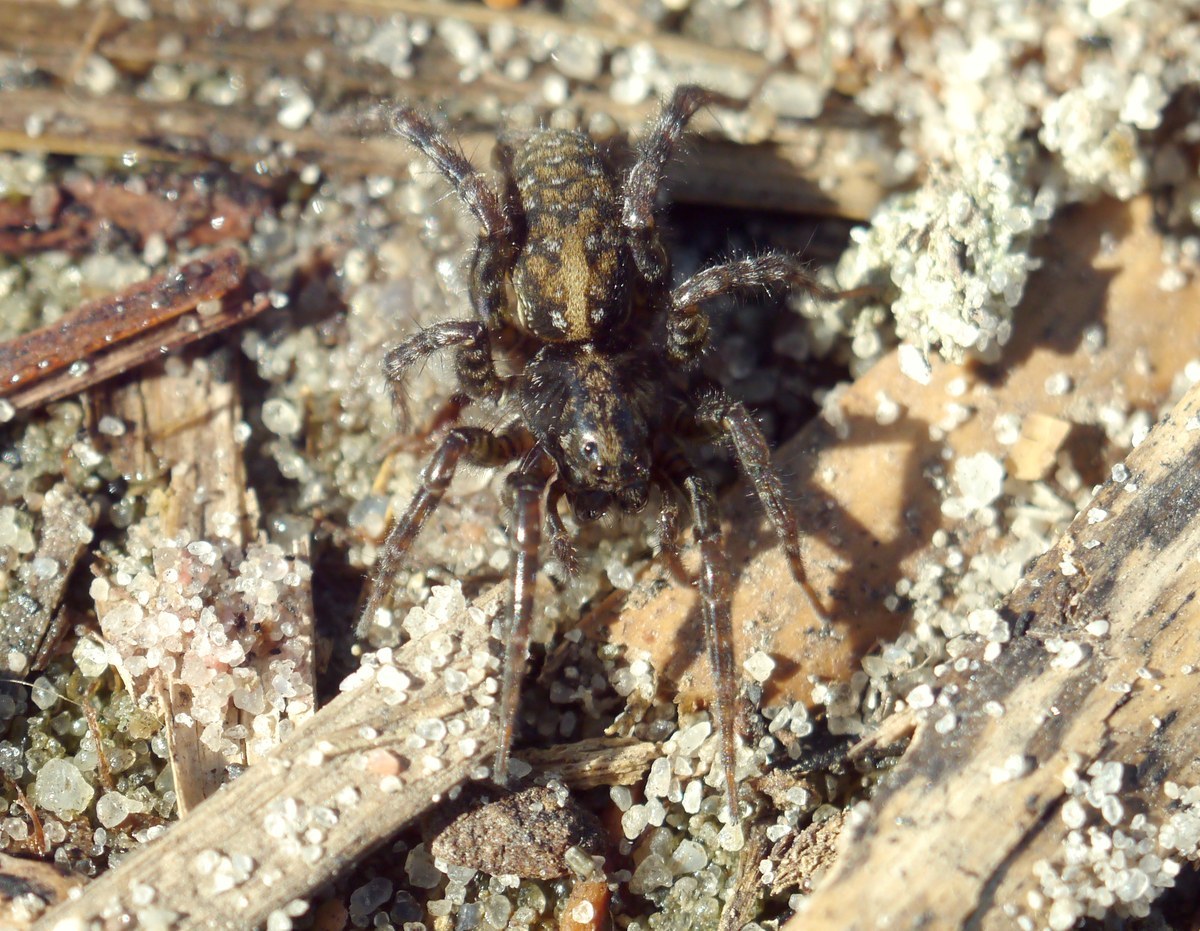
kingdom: Animalia
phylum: Arthropoda
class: Arachnida
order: Araneae
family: Lycosidae
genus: Arctosa
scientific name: Arctosa leopardus
